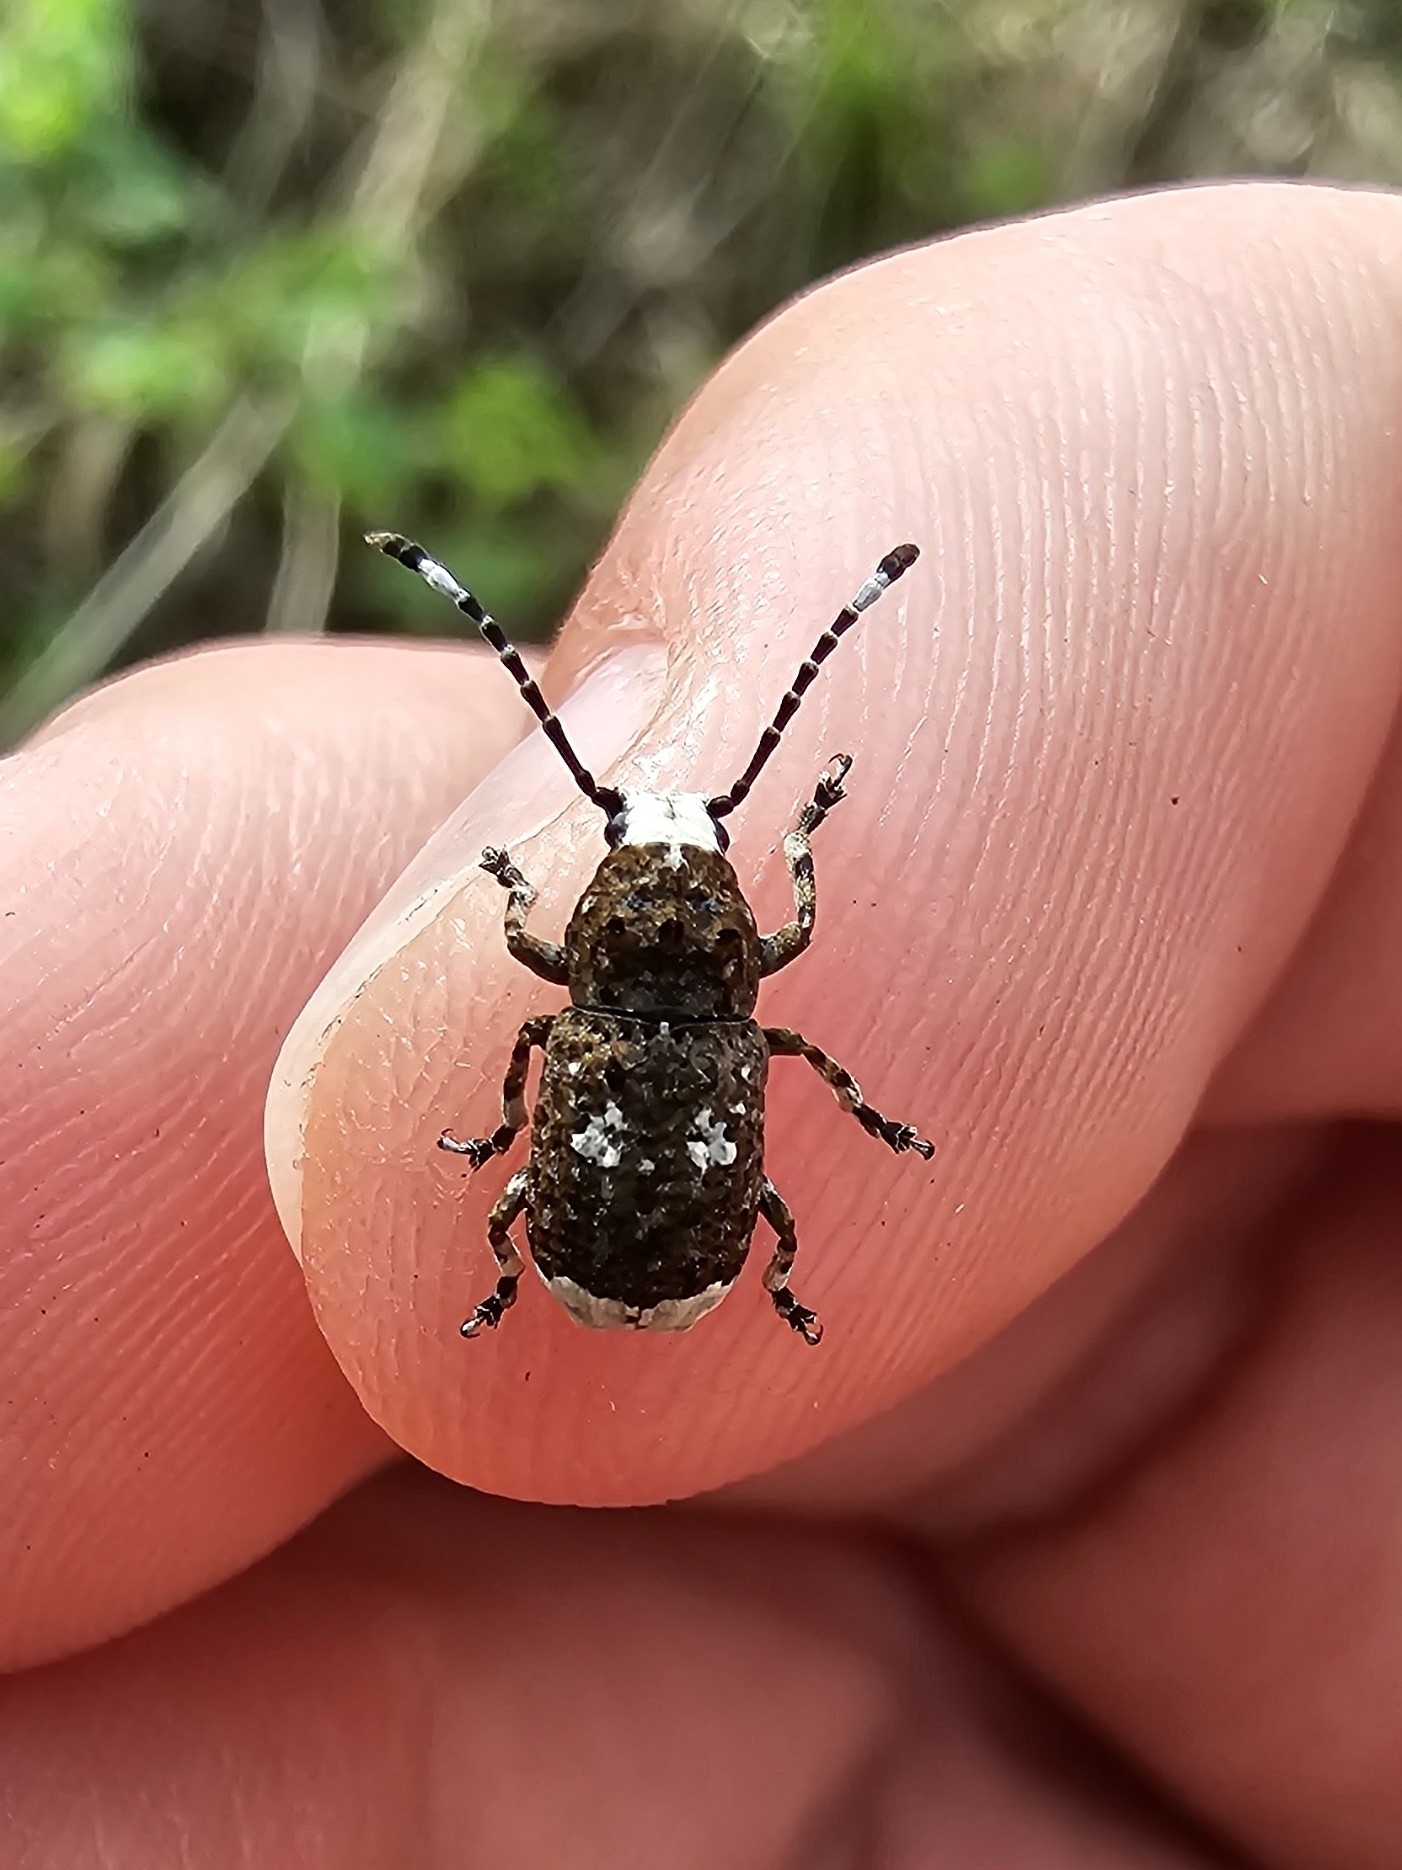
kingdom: Animalia
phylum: Arthropoda
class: Insecta
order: Coleoptera
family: Anthribidae
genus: Platystomos
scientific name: Platystomos albinus
